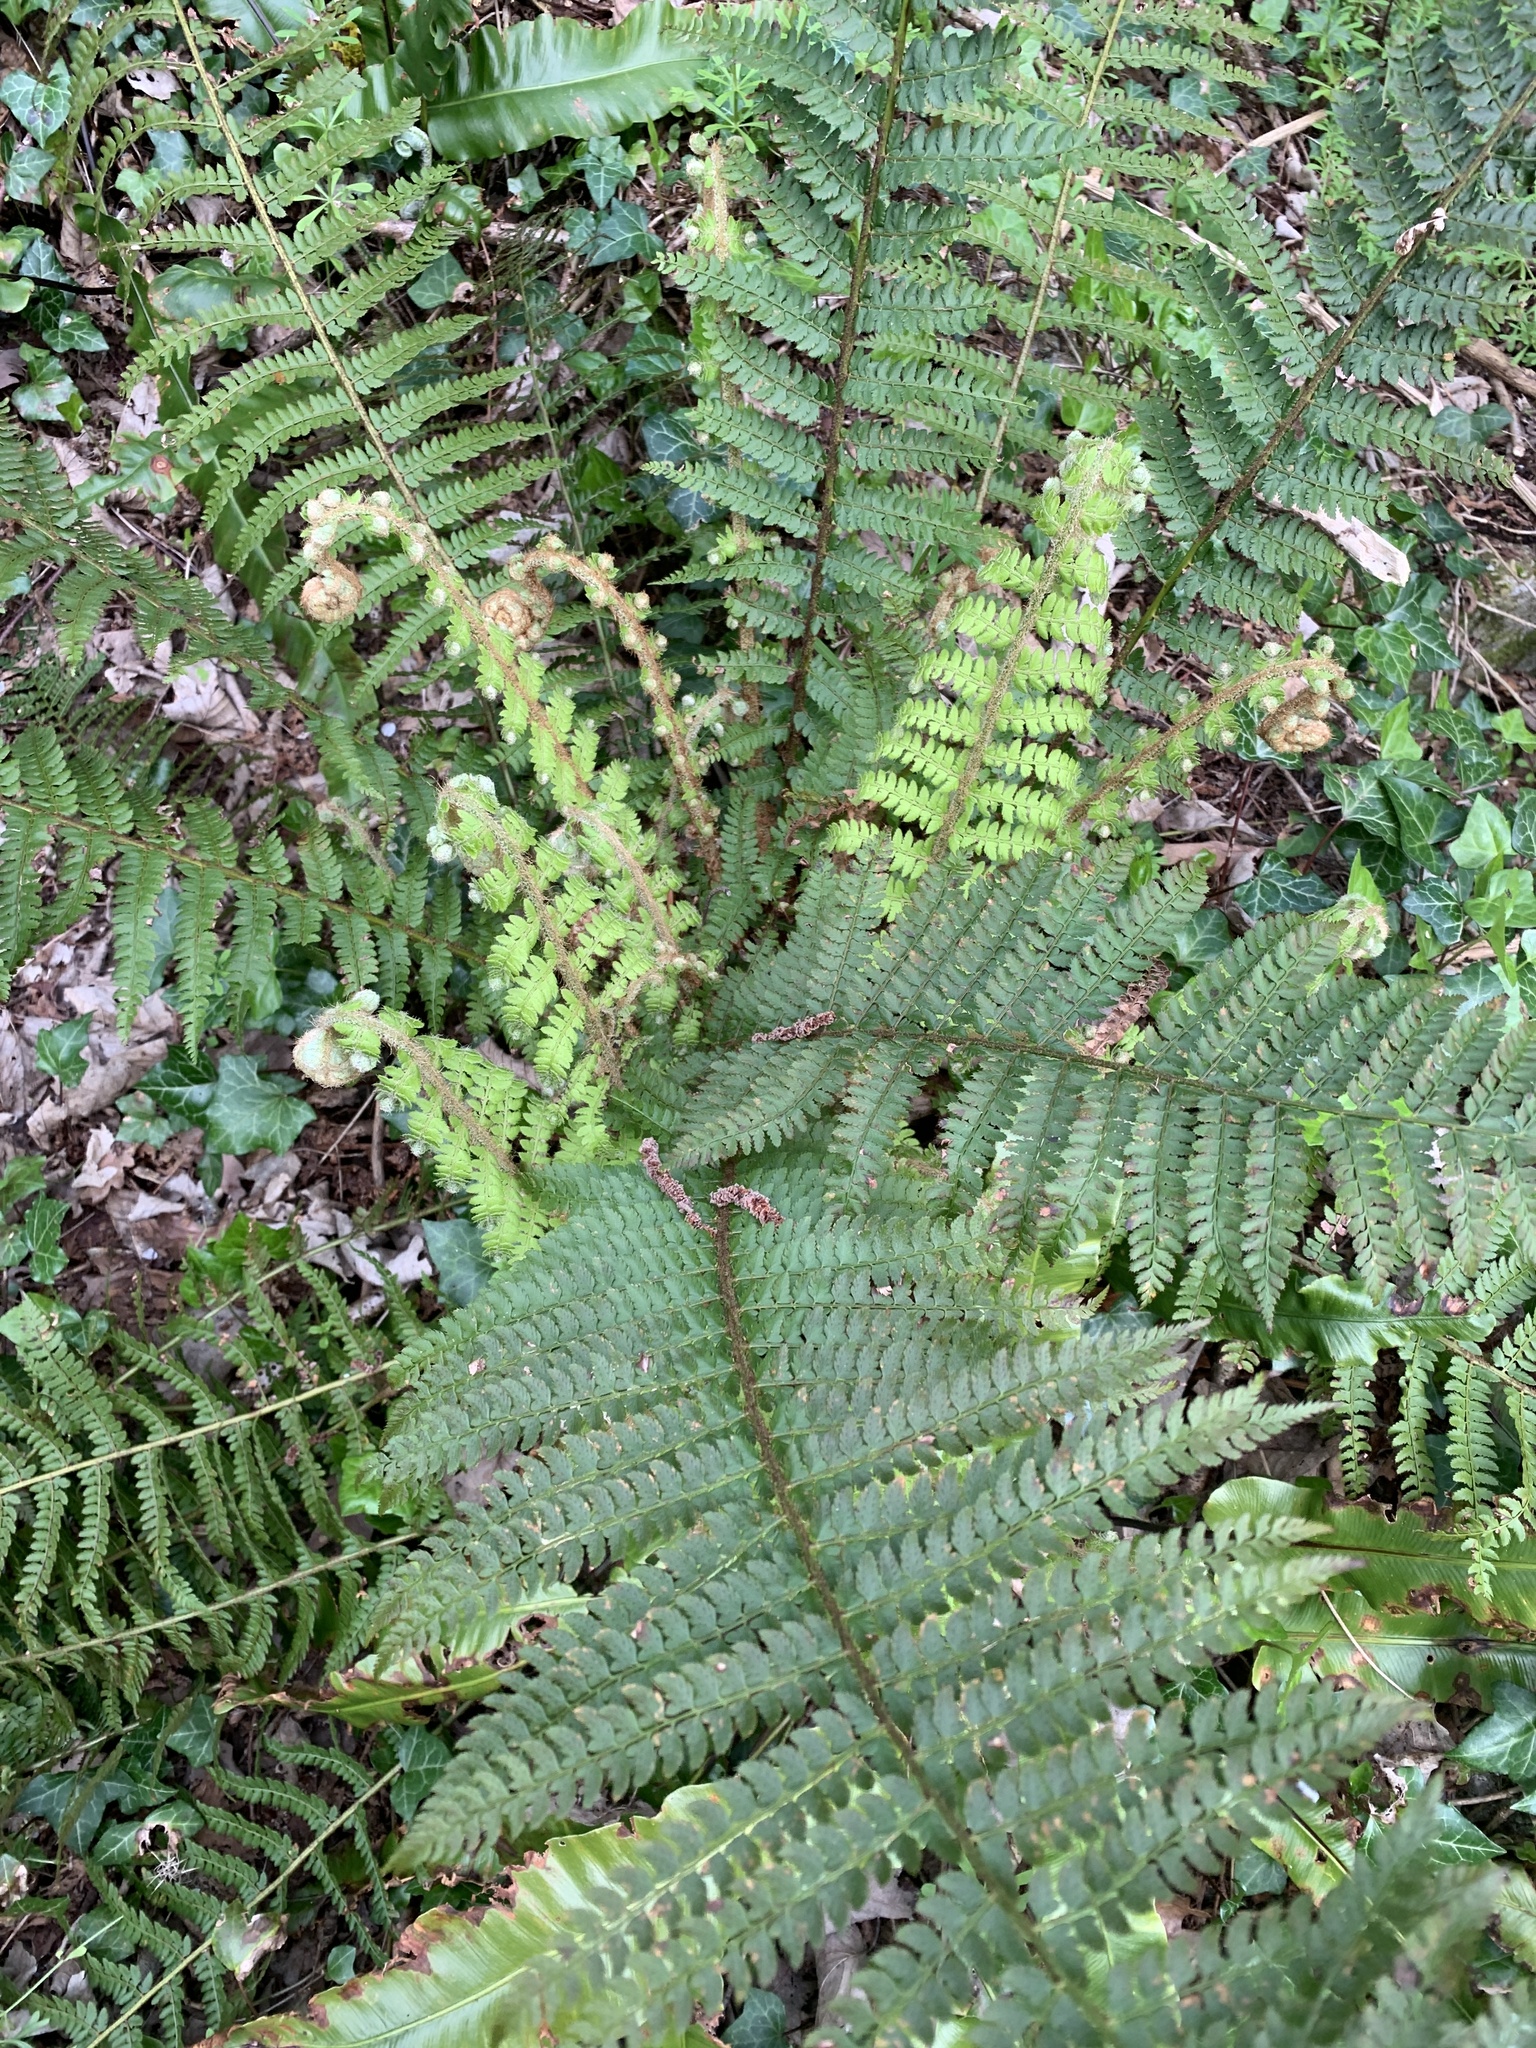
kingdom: Plantae
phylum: Tracheophyta
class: Polypodiopsida
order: Polypodiales
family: Dryopteridaceae
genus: Polystichum
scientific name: Polystichum setiferum
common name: Soft shield-fern
